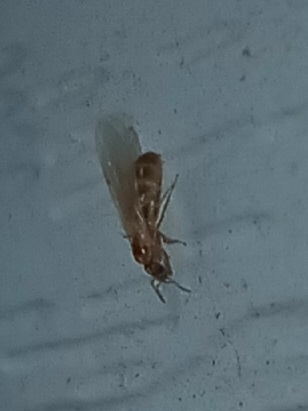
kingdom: Animalia
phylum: Arthropoda
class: Insecta
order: Hymenoptera
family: Formicidae
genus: Brachymyrmex
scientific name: Brachymyrmex depilis
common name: Hairless rover ant
